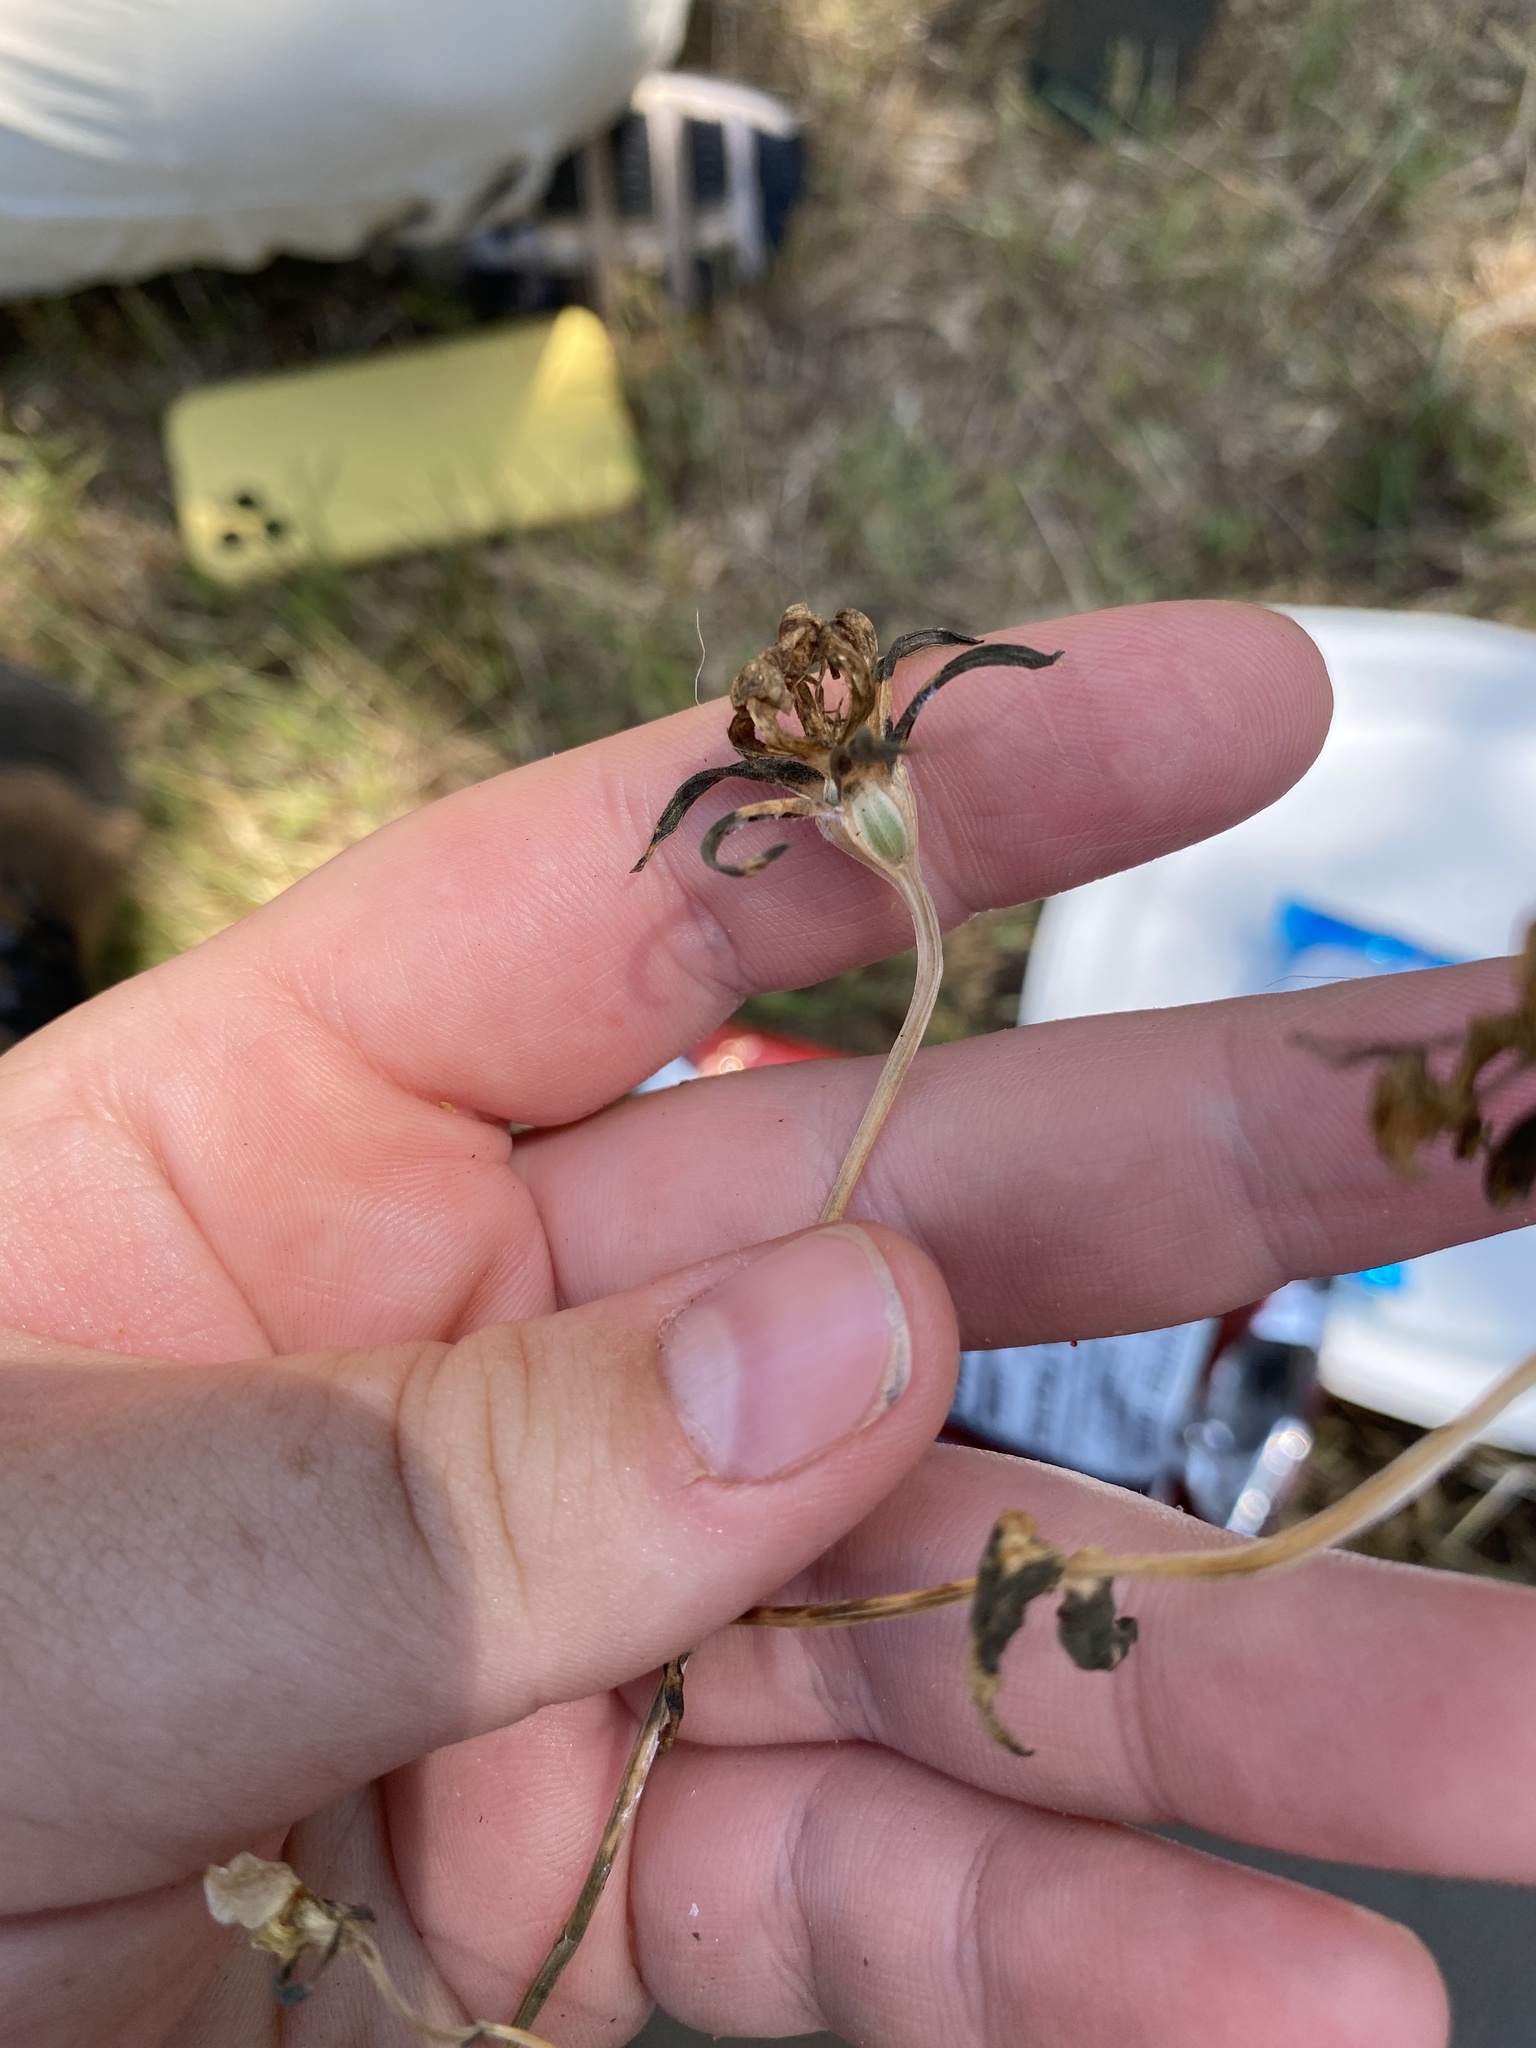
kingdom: Plantae
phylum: Tracheophyta
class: Magnoliopsida
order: Gentianales
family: Gentianaceae
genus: Sabatia
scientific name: Sabatia campestris
